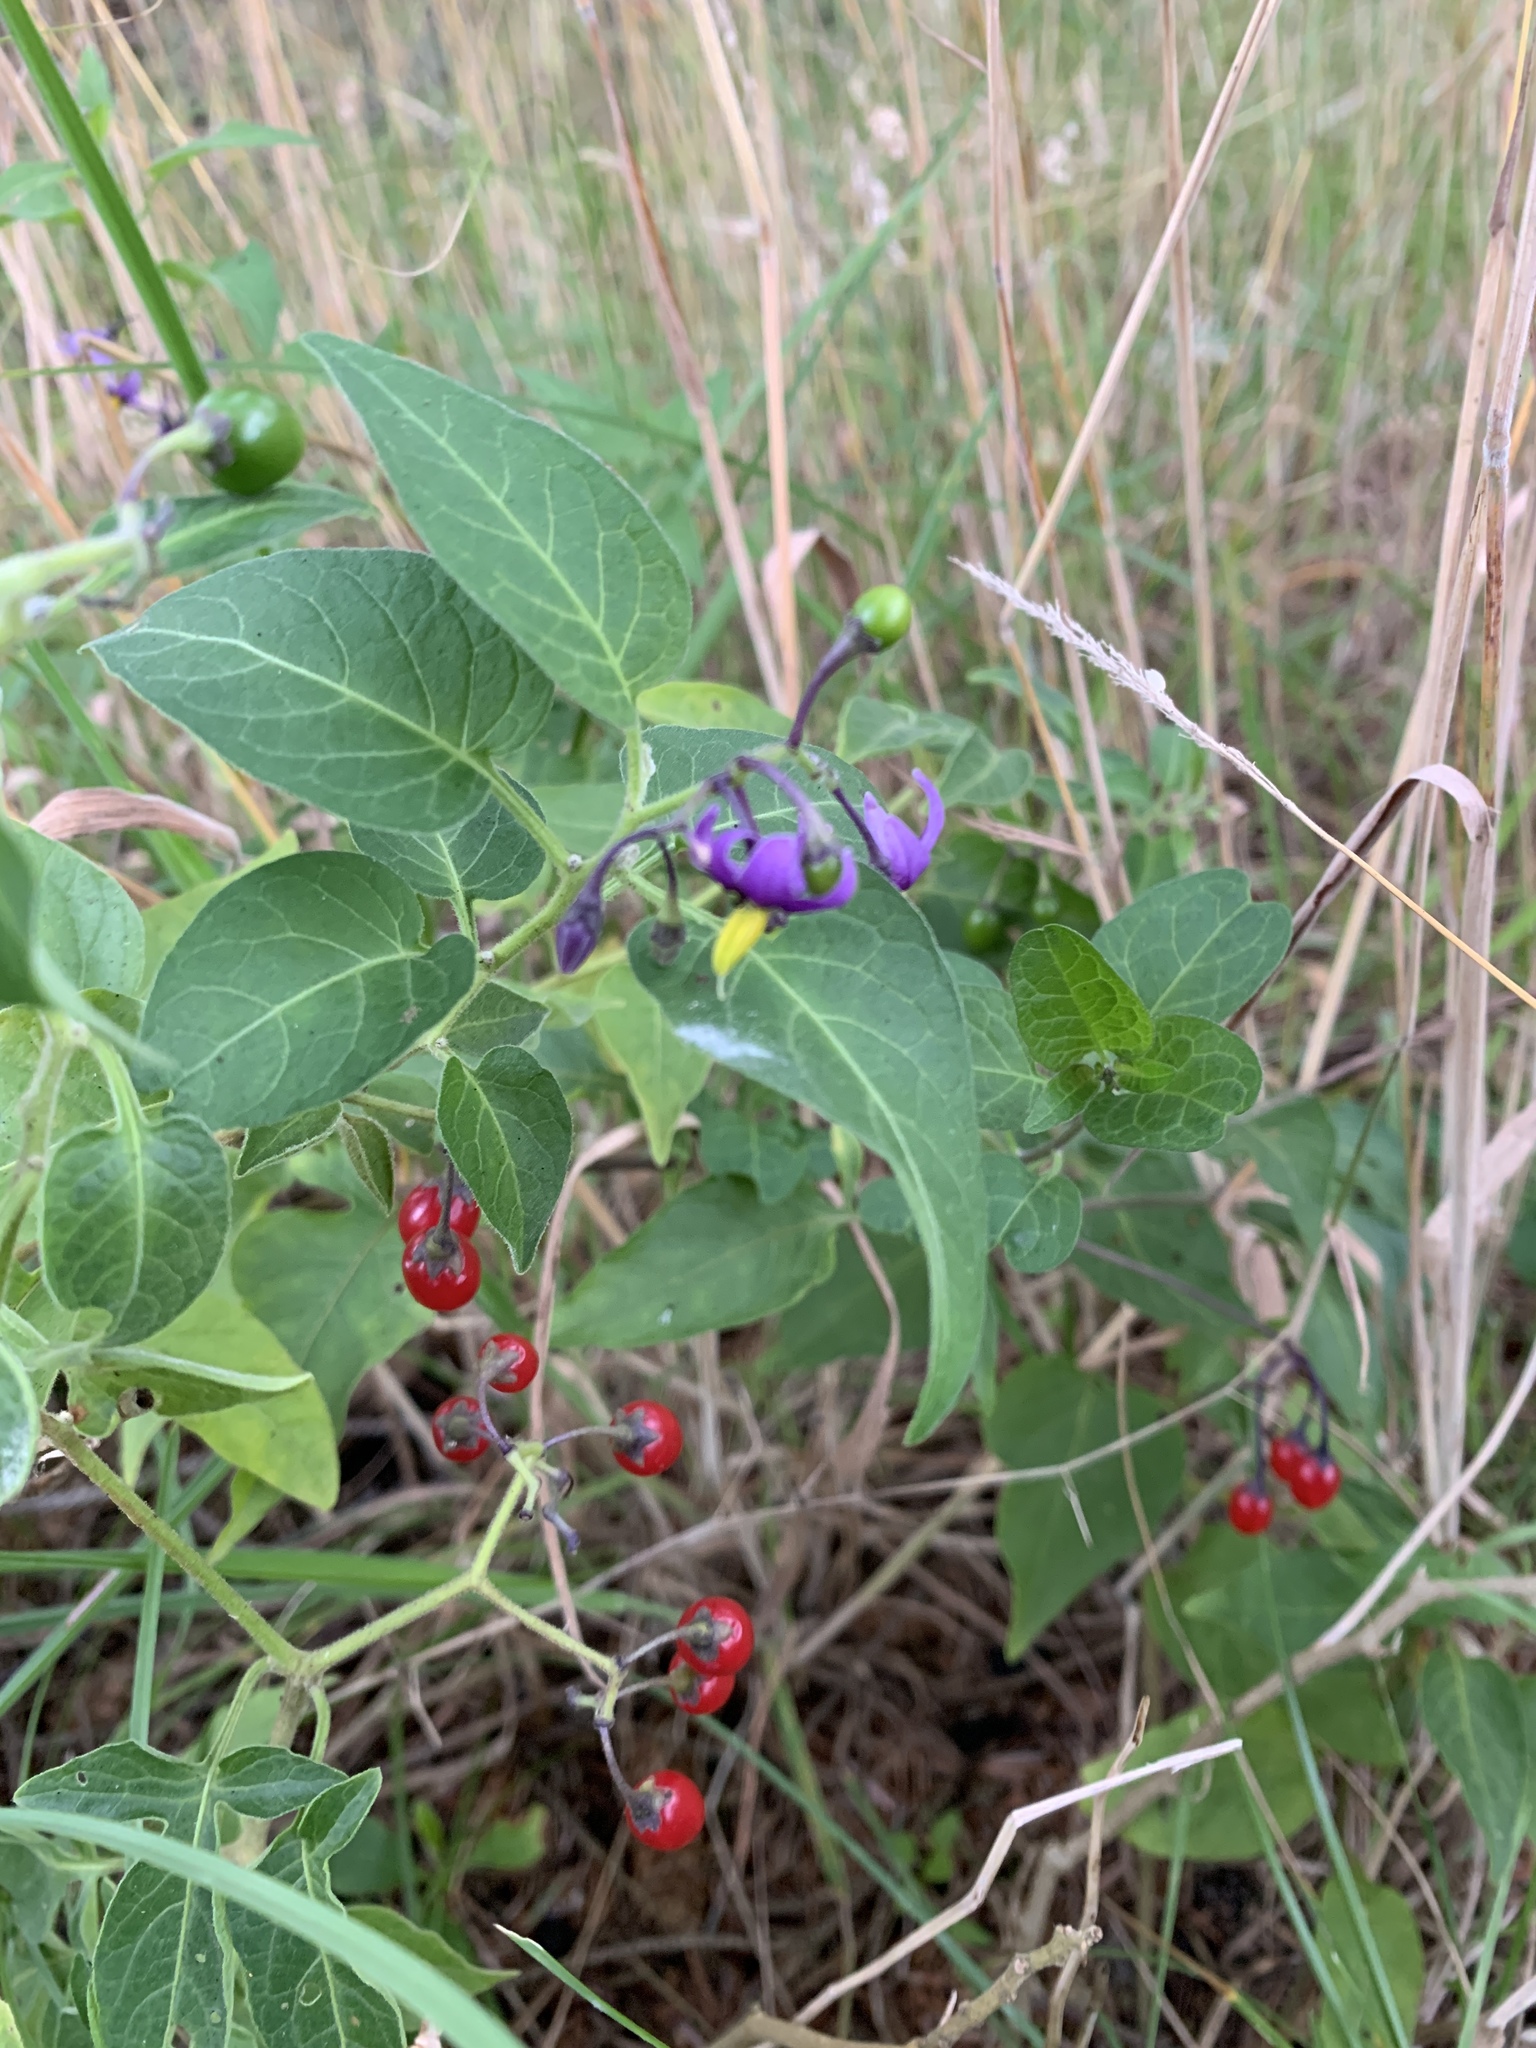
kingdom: Plantae
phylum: Tracheophyta
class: Magnoliopsida
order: Solanales
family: Solanaceae
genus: Solanum
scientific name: Solanum dulcamara
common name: Climbing nightshade
